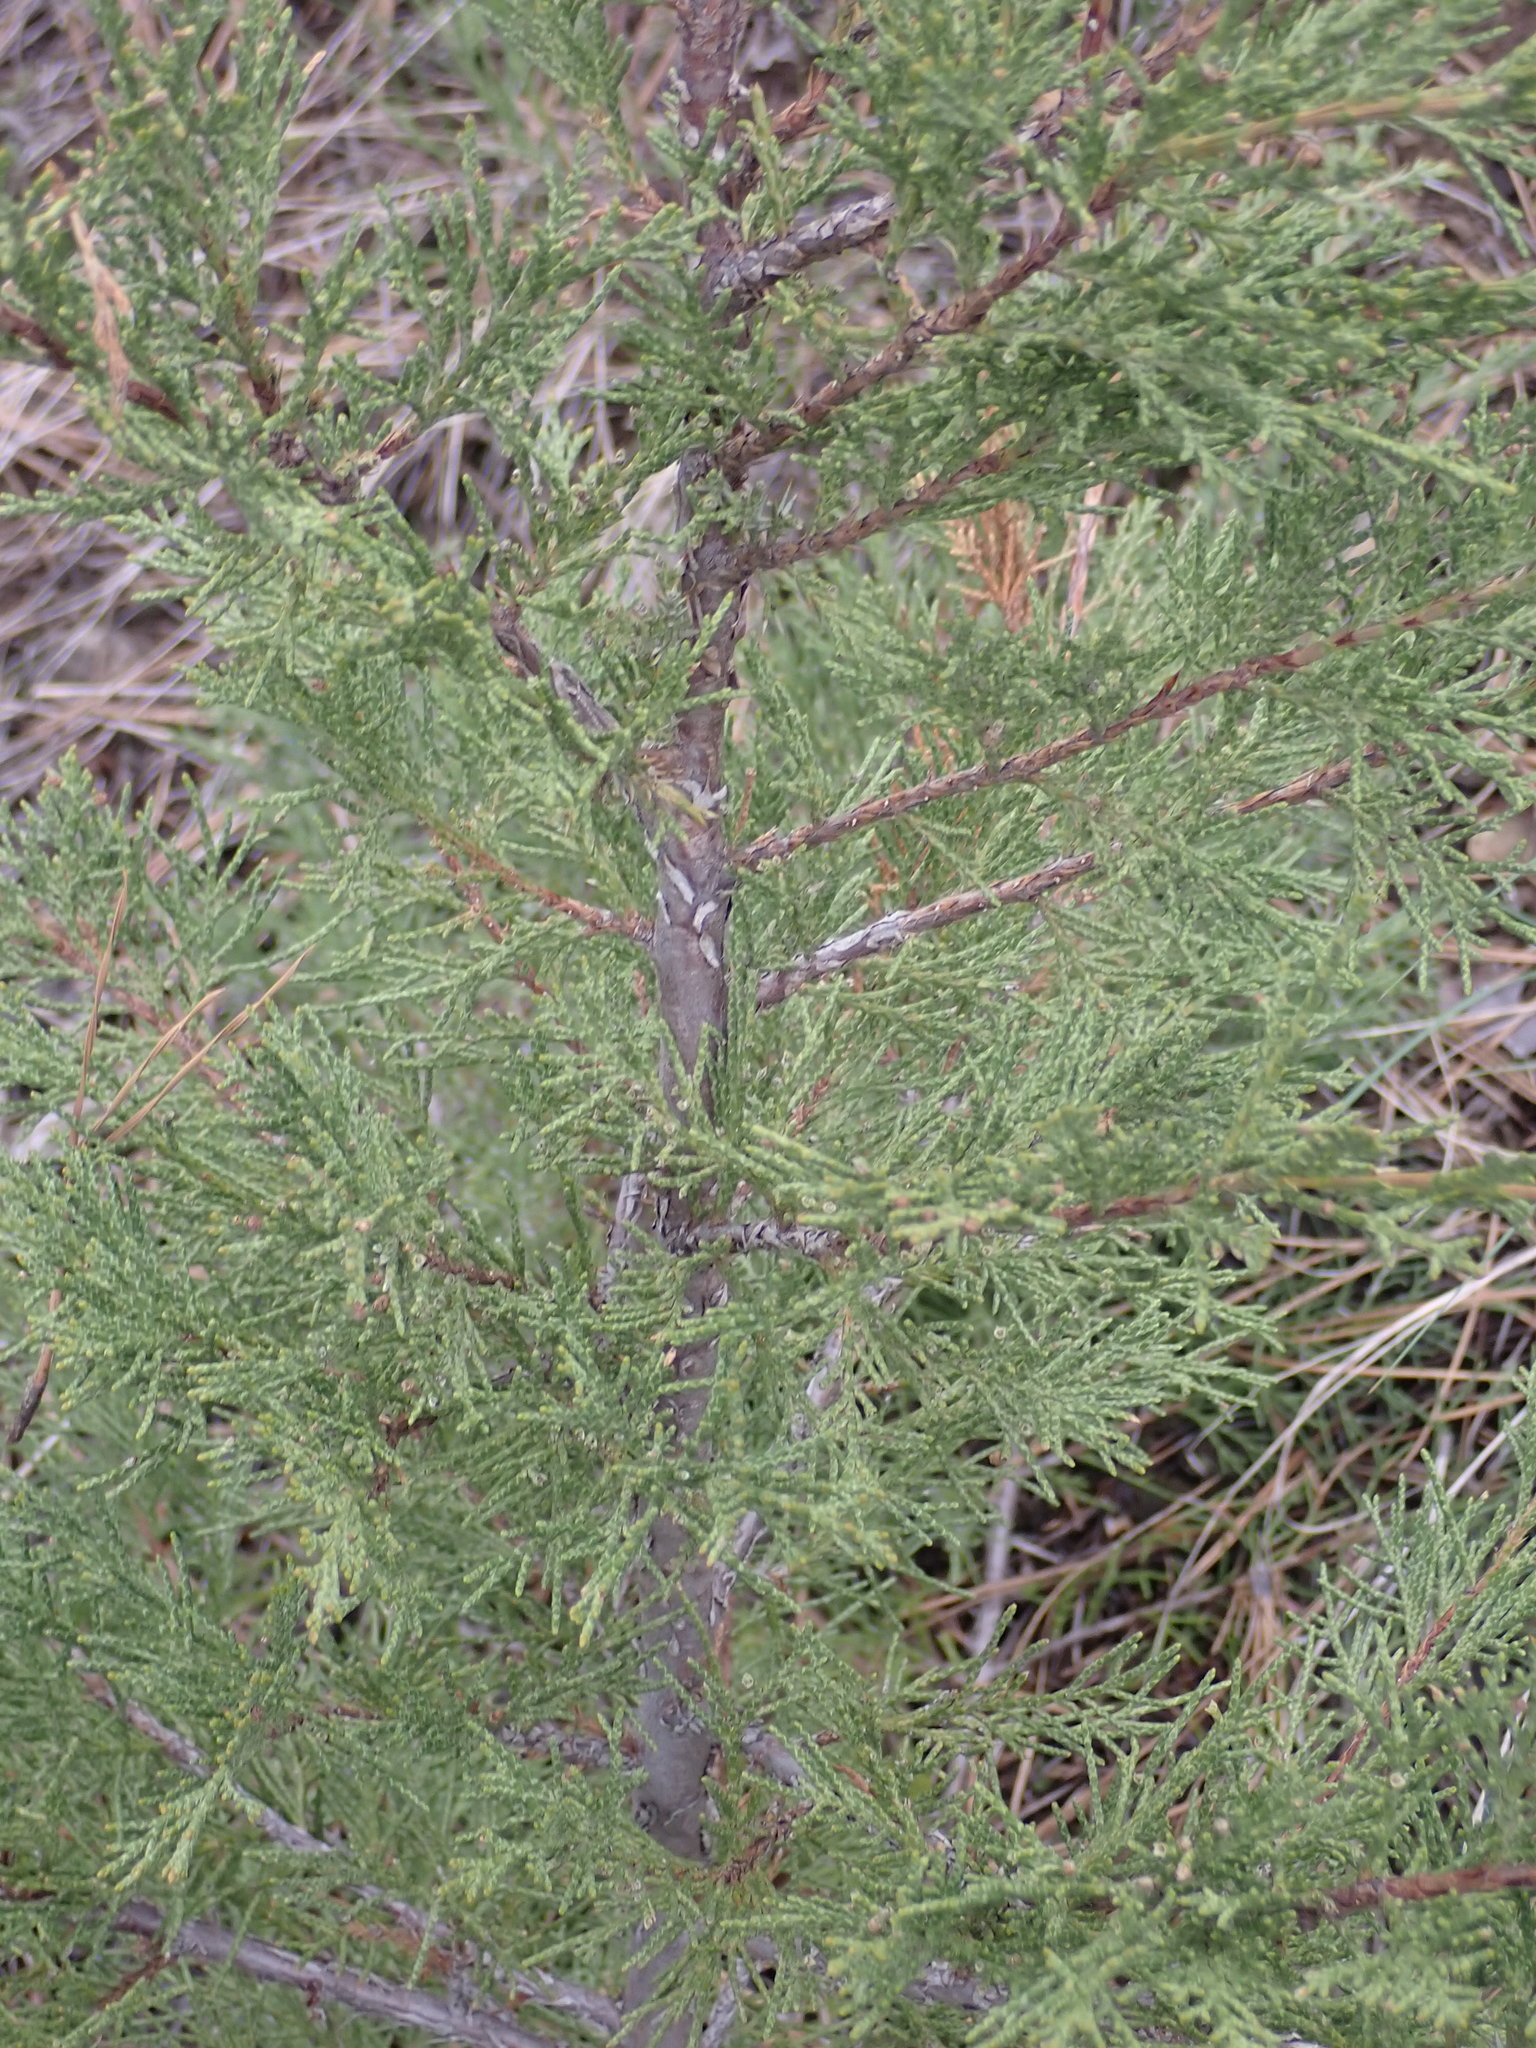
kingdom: Plantae
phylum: Tracheophyta
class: Pinopsida
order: Pinales
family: Cupressaceae
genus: Juniperus
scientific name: Juniperus scopulorum
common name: Rocky mountain juniper
